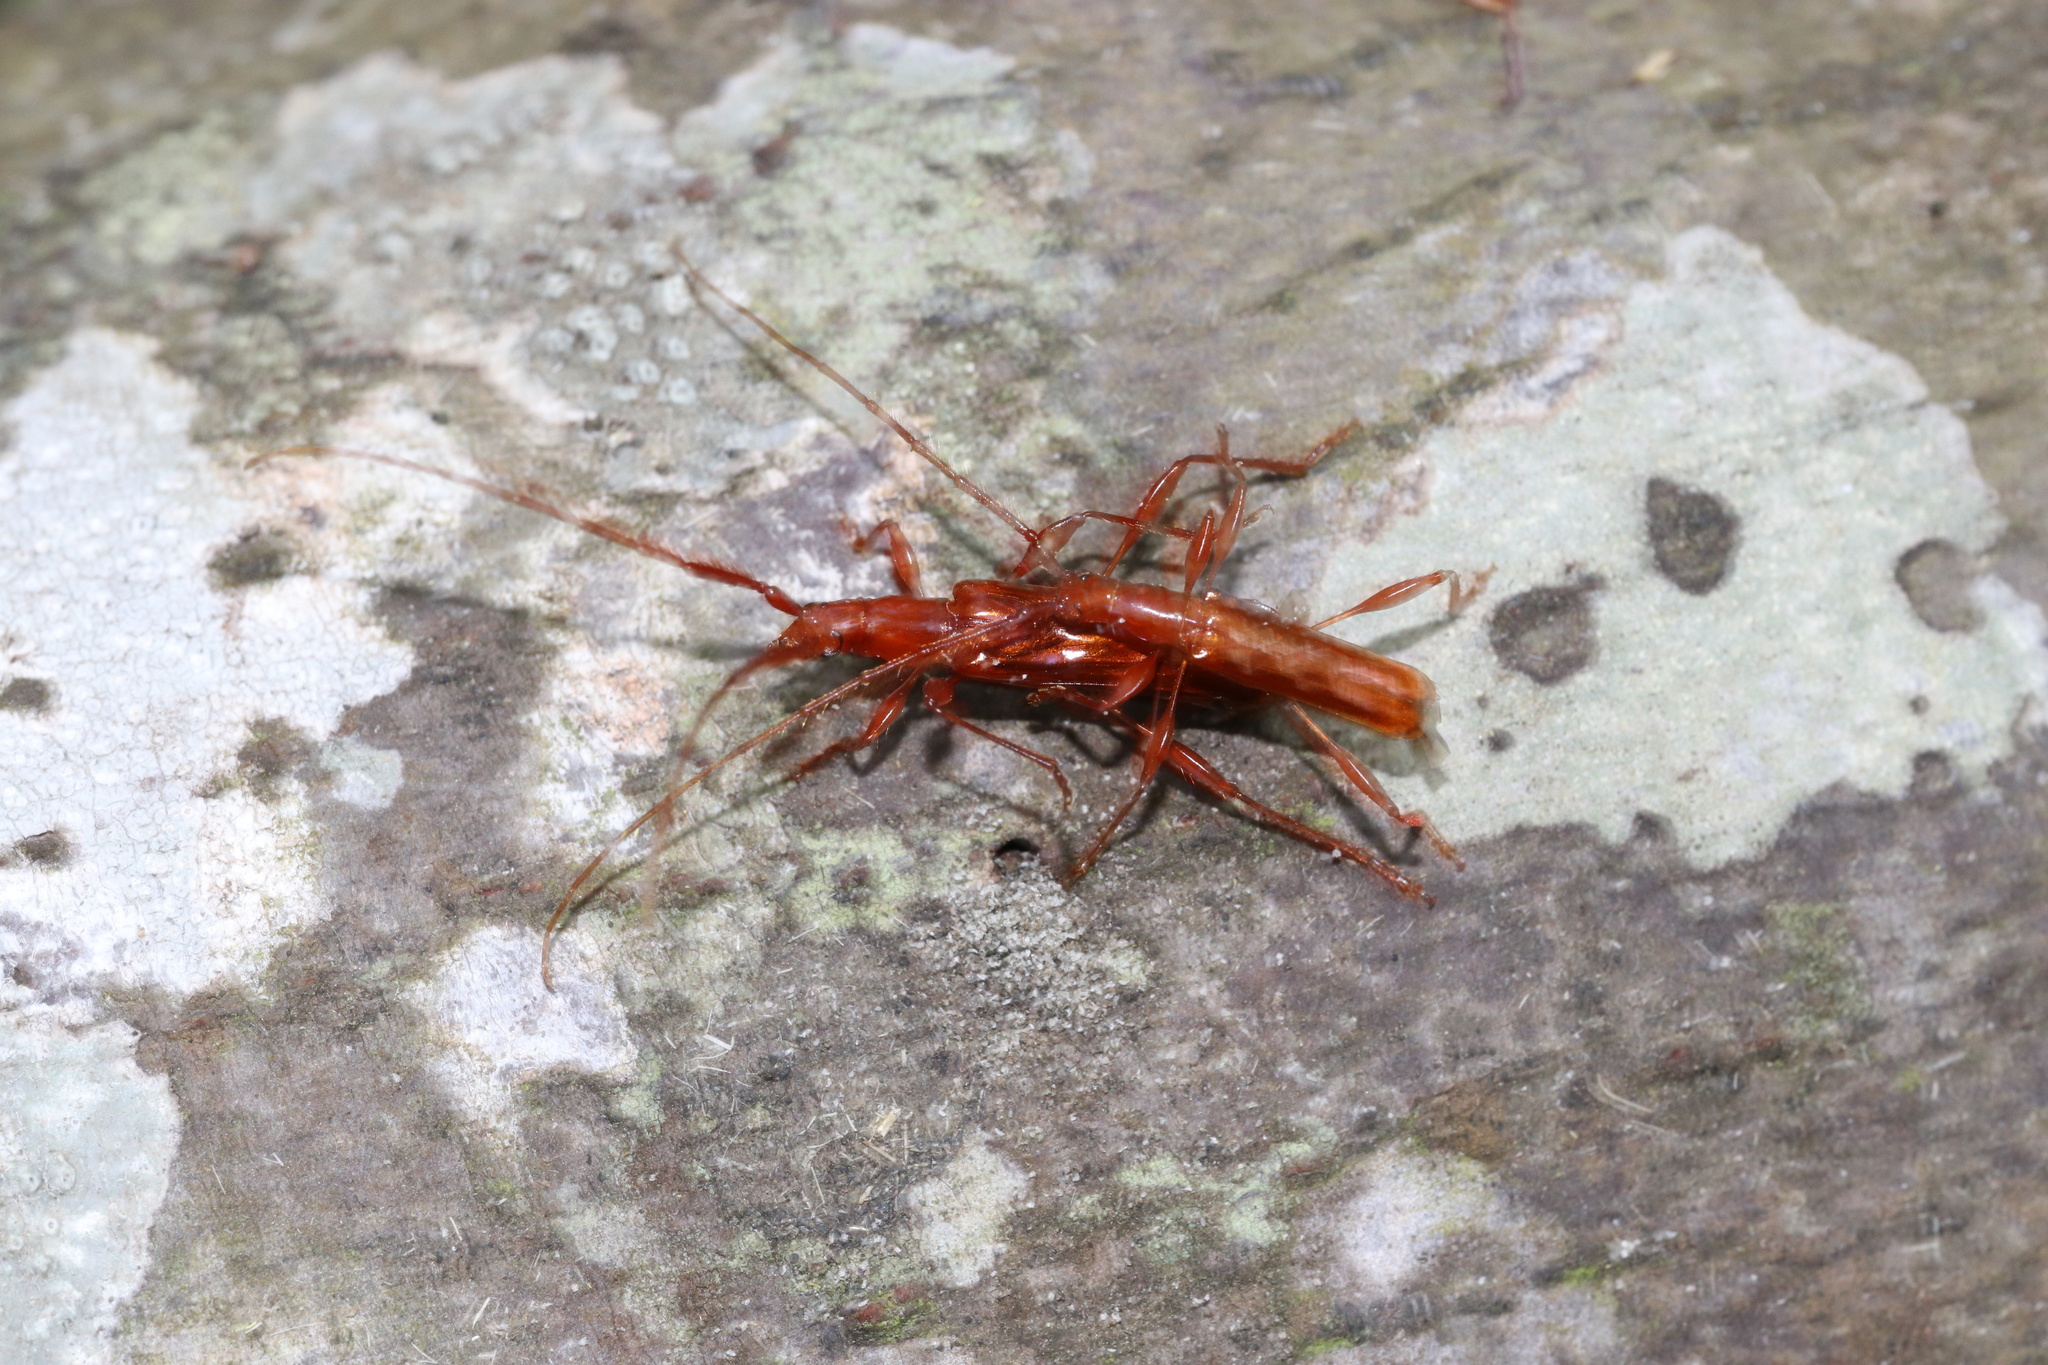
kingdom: Animalia
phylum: Arthropoda
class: Insecta
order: Coleoptera
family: Cerambycidae
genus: Chenoderus
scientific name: Chenoderus testaceus
